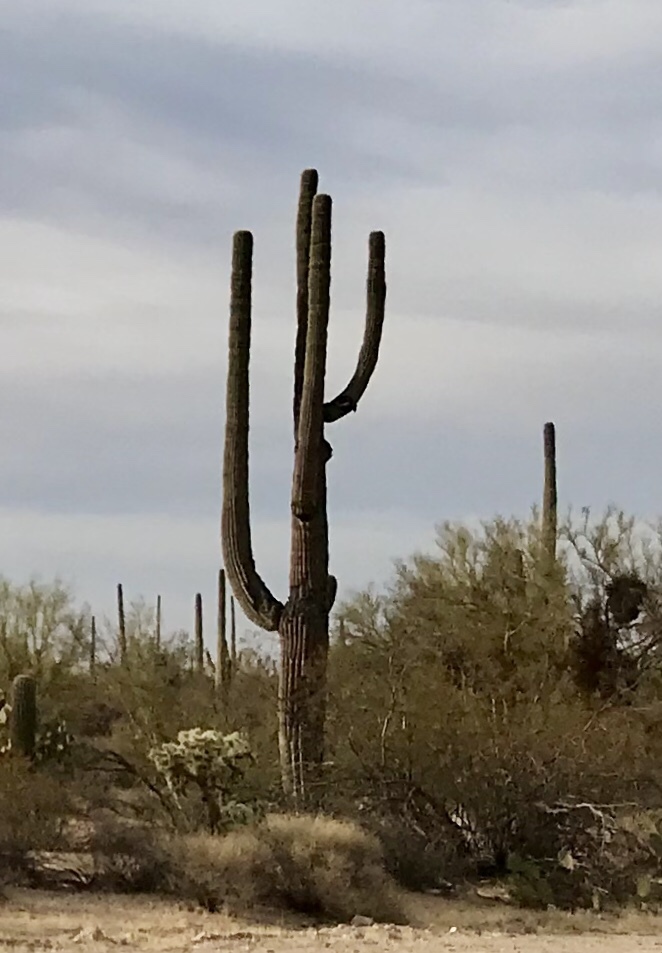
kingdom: Plantae
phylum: Tracheophyta
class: Magnoliopsida
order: Caryophyllales
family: Cactaceae
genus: Carnegiea
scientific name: Carnegiea gigantea
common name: Saguaro
